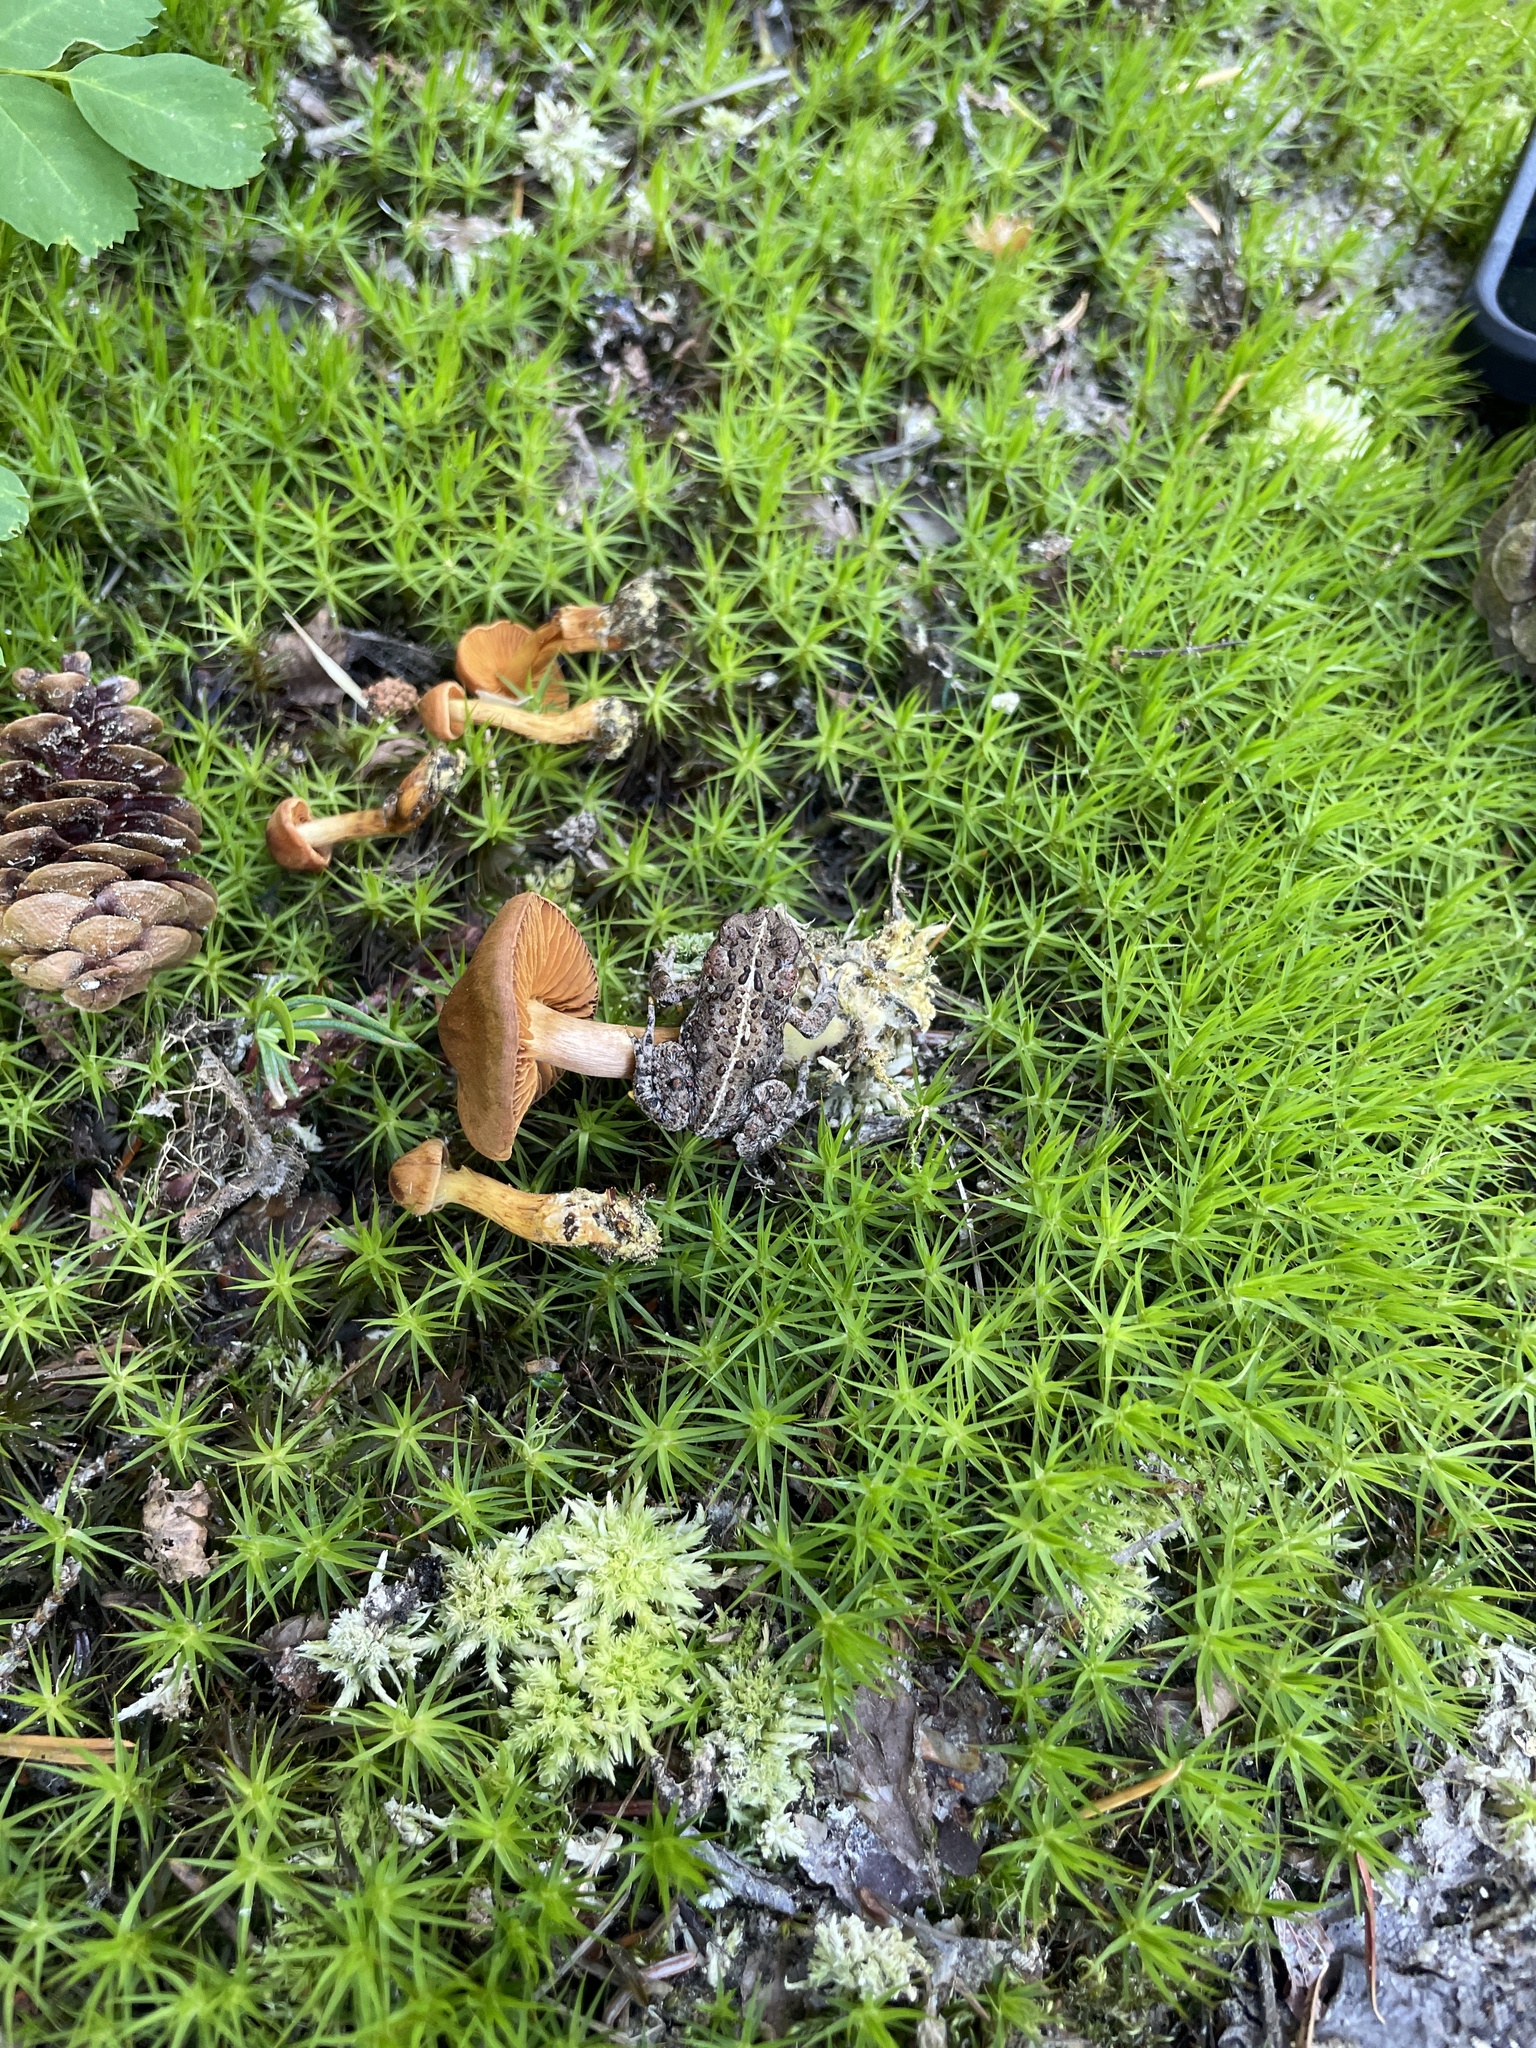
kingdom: Animalia
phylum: Chordata
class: Amphibia
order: Anura
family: Bufonidae
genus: Anaxyrus
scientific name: Anaxyrus boreas
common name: Western toad
